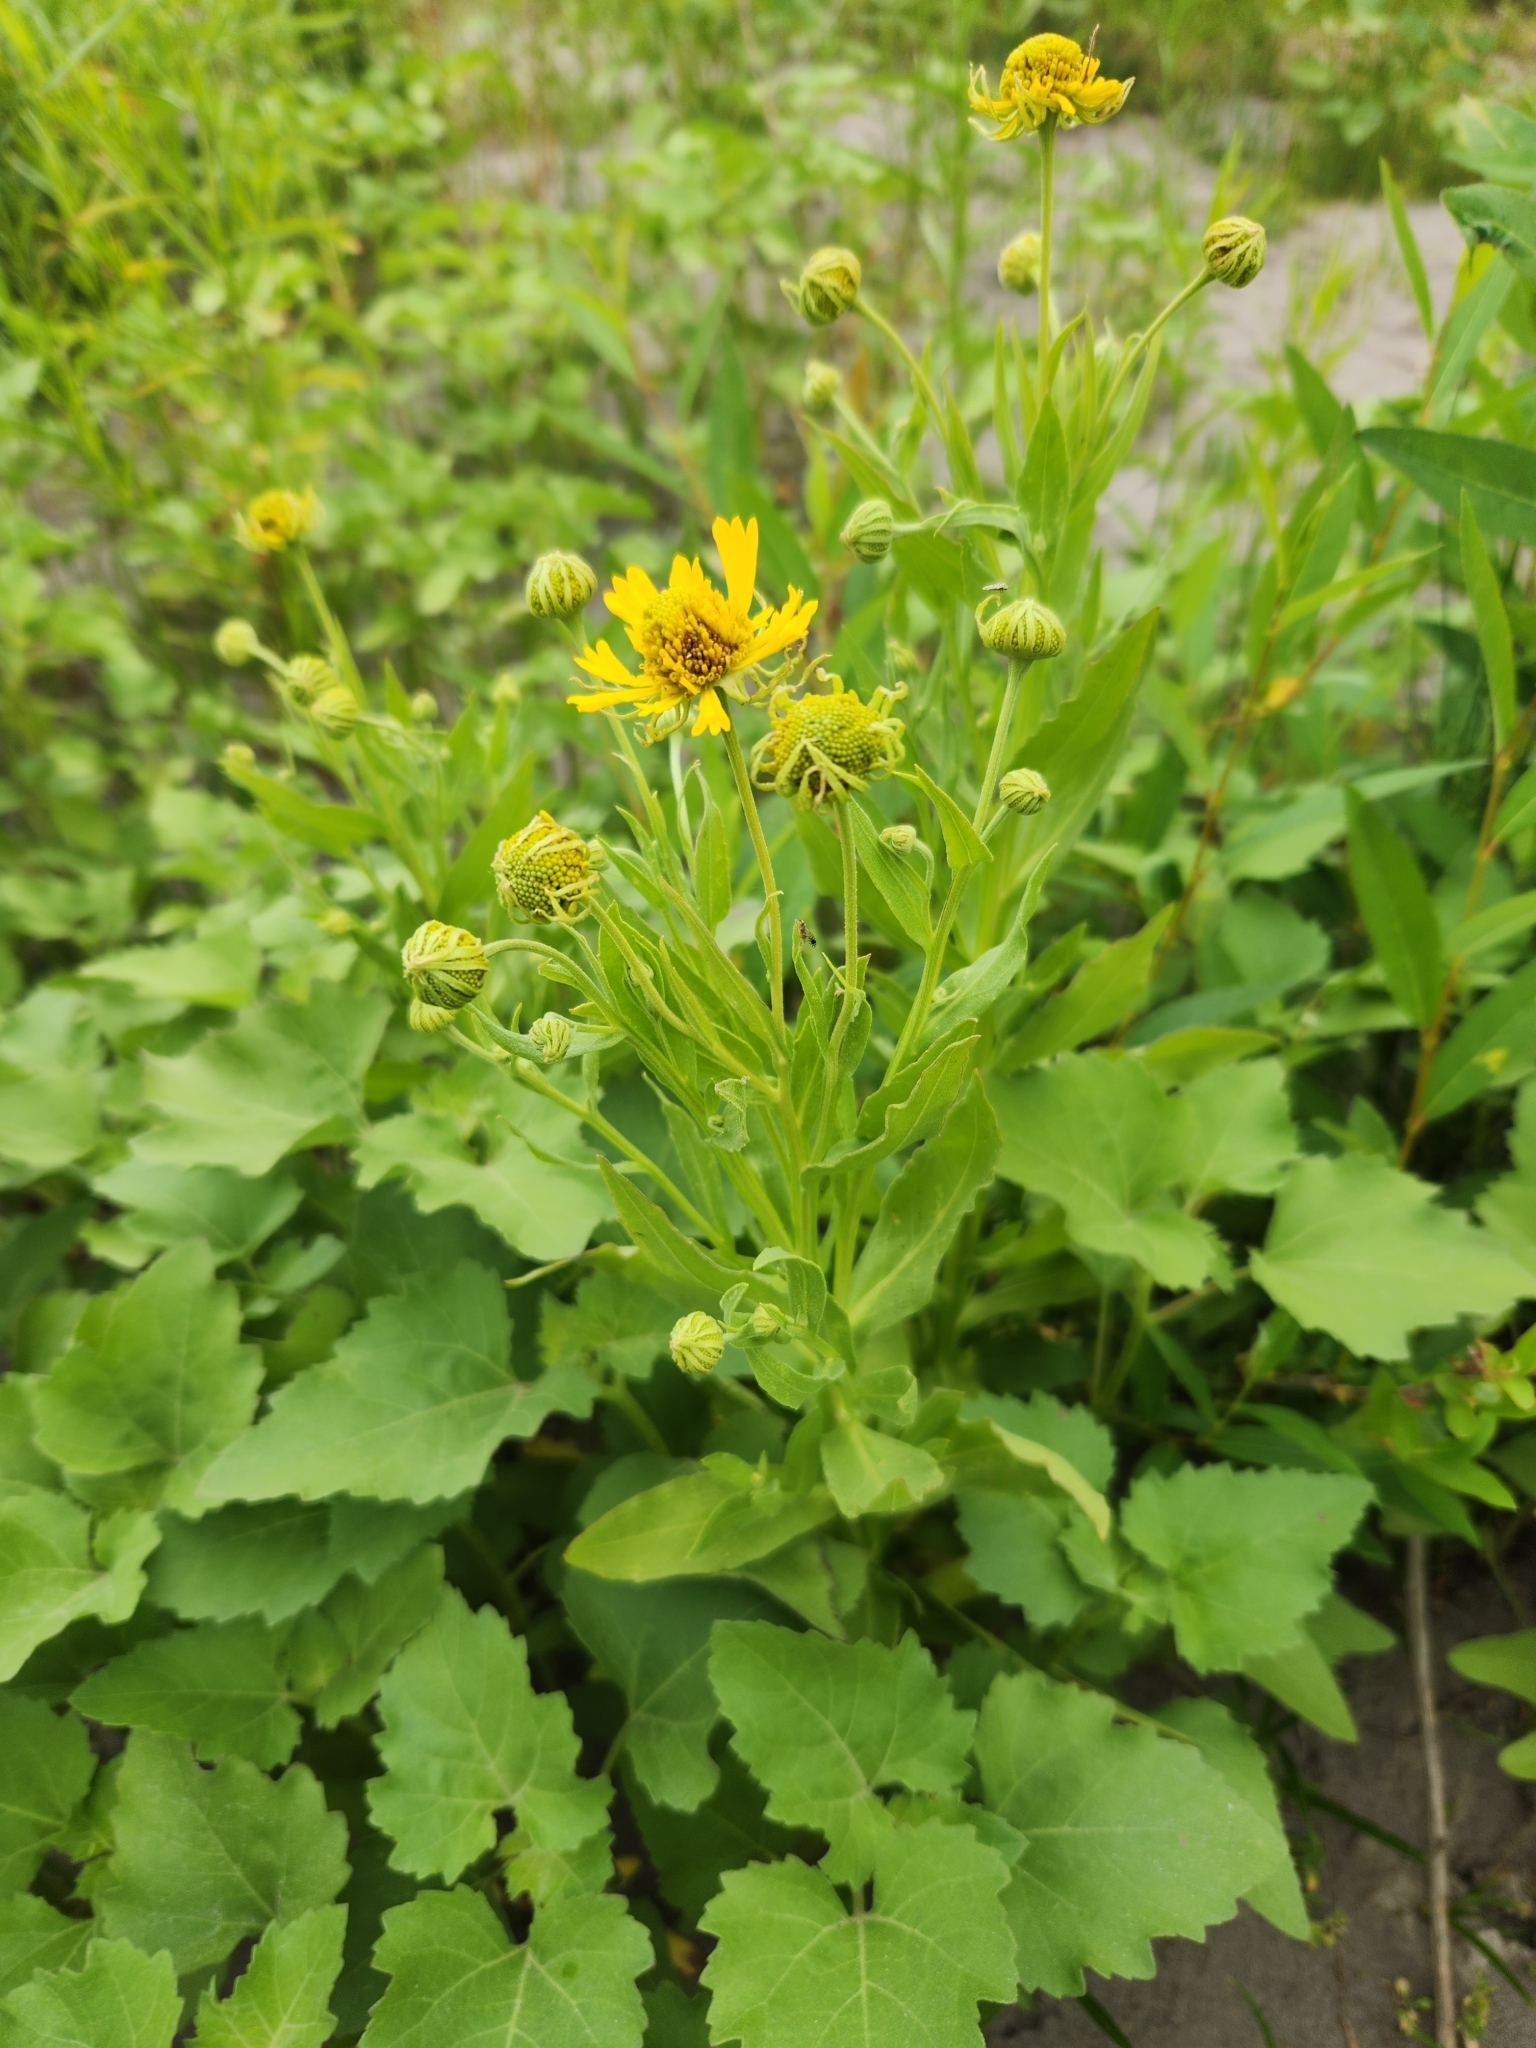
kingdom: Plantae
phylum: Tracheophyta
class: Magnoliopsida
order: Asterales
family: Asteraceae
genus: Helenium
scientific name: Helenium autumnale
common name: Sneezeweed
